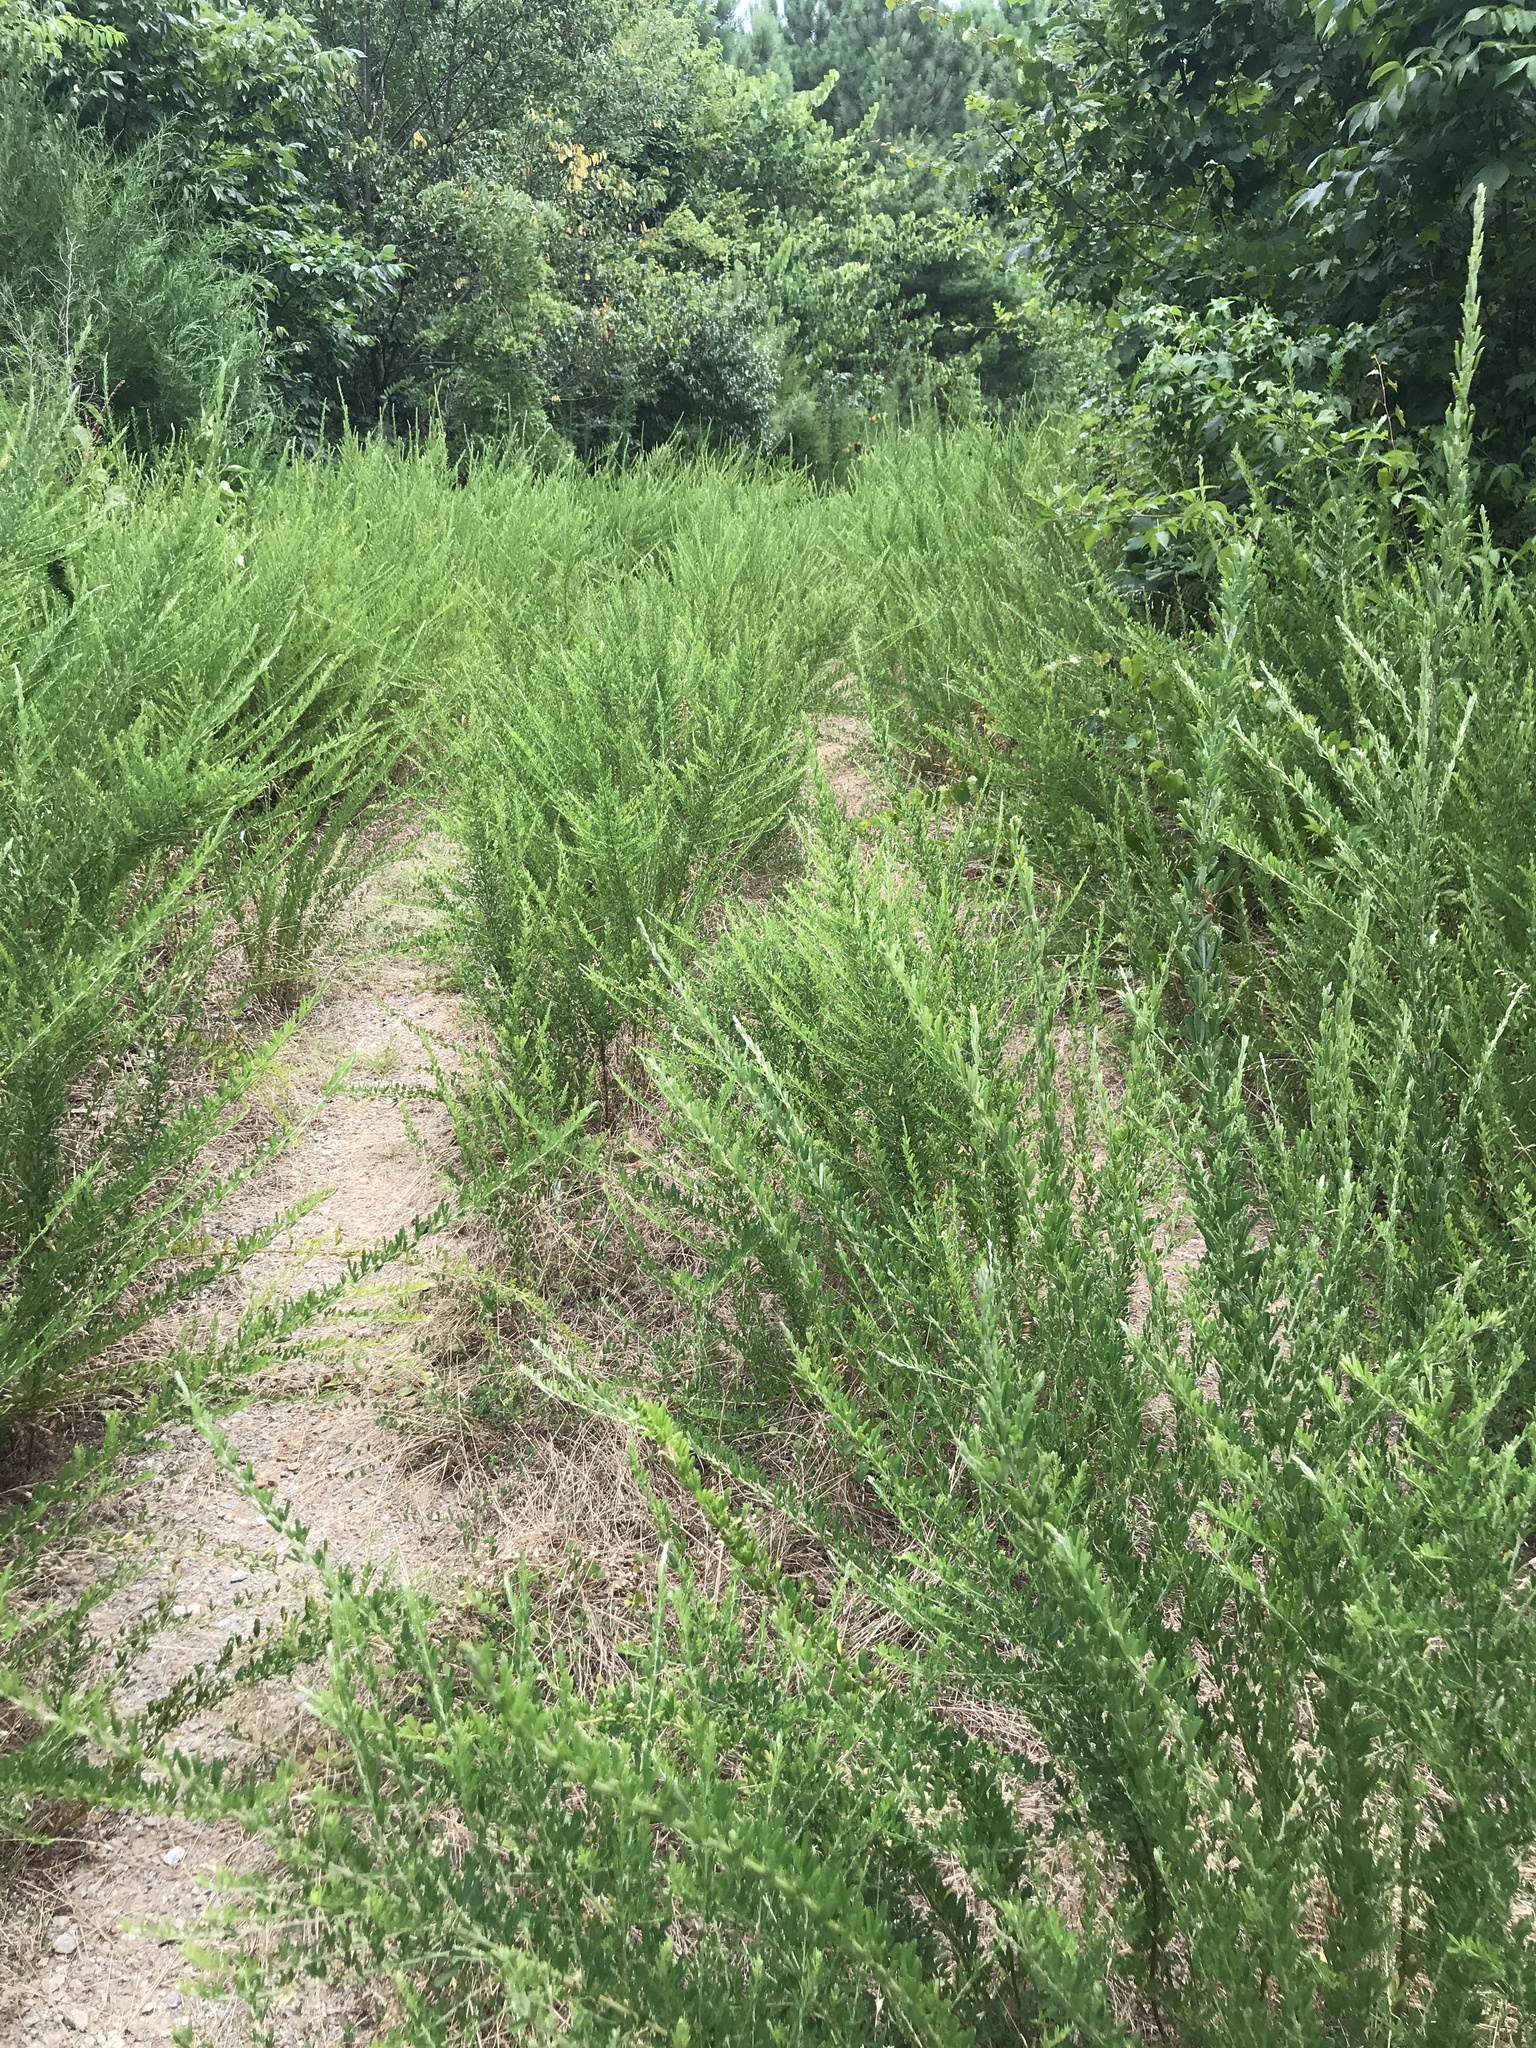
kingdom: Plantae
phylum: Tracheophyta
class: Magnoliopsida
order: Fabales
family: Fabaceae
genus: Lespedeza
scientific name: Lespedeza cuneata
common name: Chinese bush-clover
